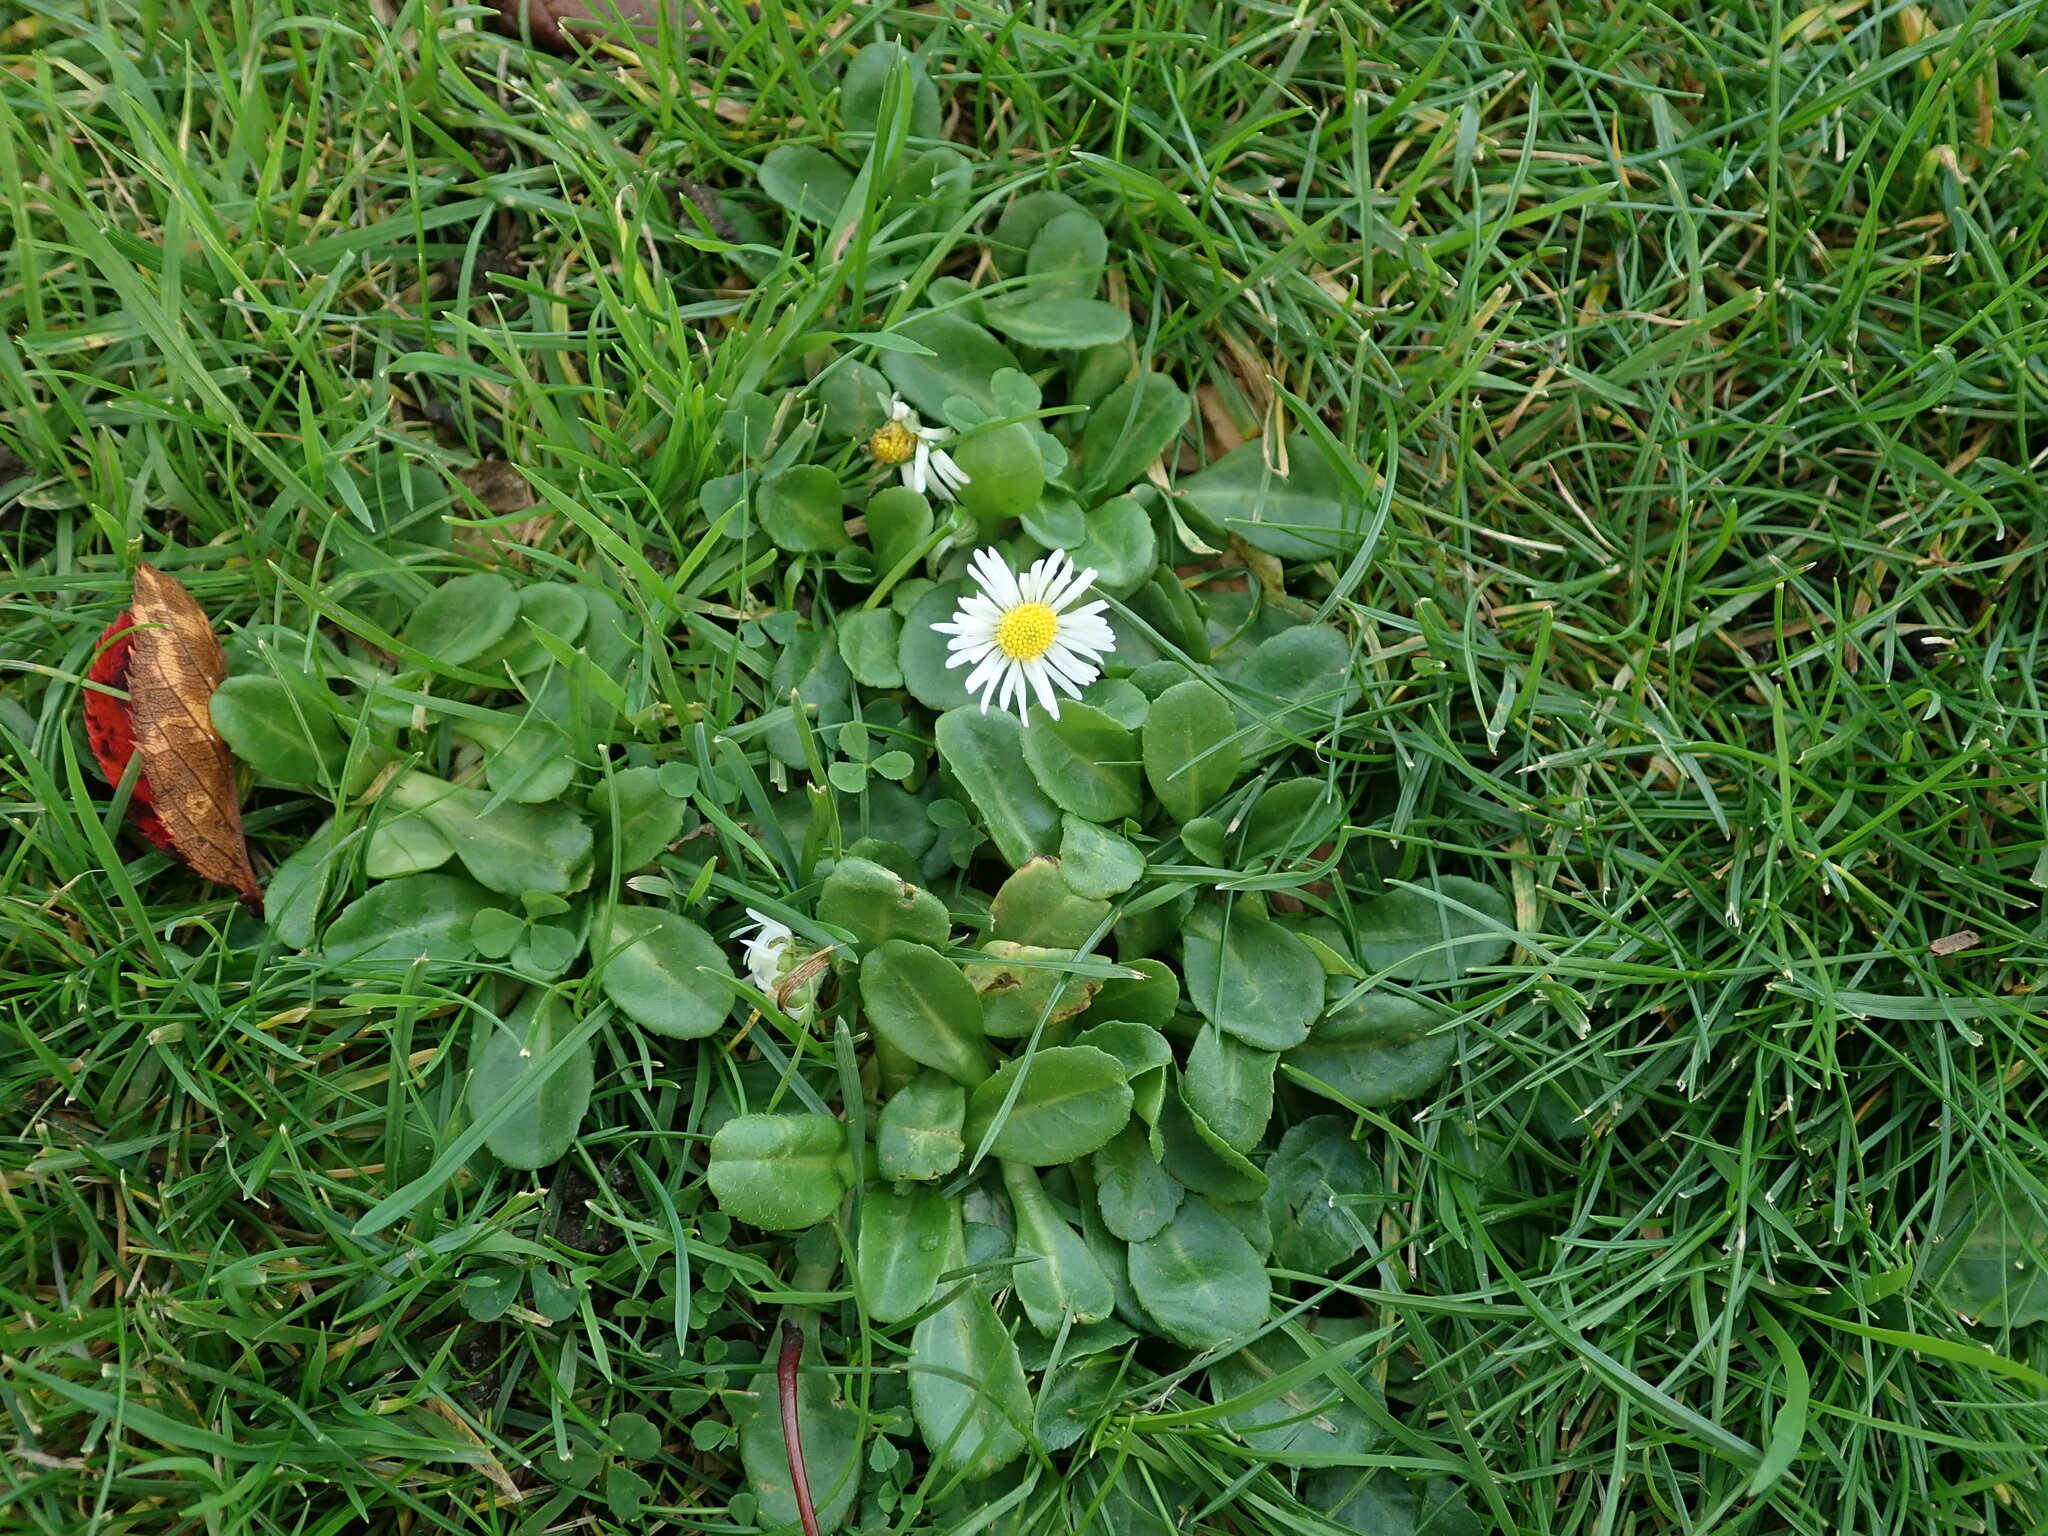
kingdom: Plantae
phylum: Tracheophyta
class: Magnoliopsida
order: Asterales
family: Asteraceae
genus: Bellis
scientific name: Bellis perennis
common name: Lawndaisy
